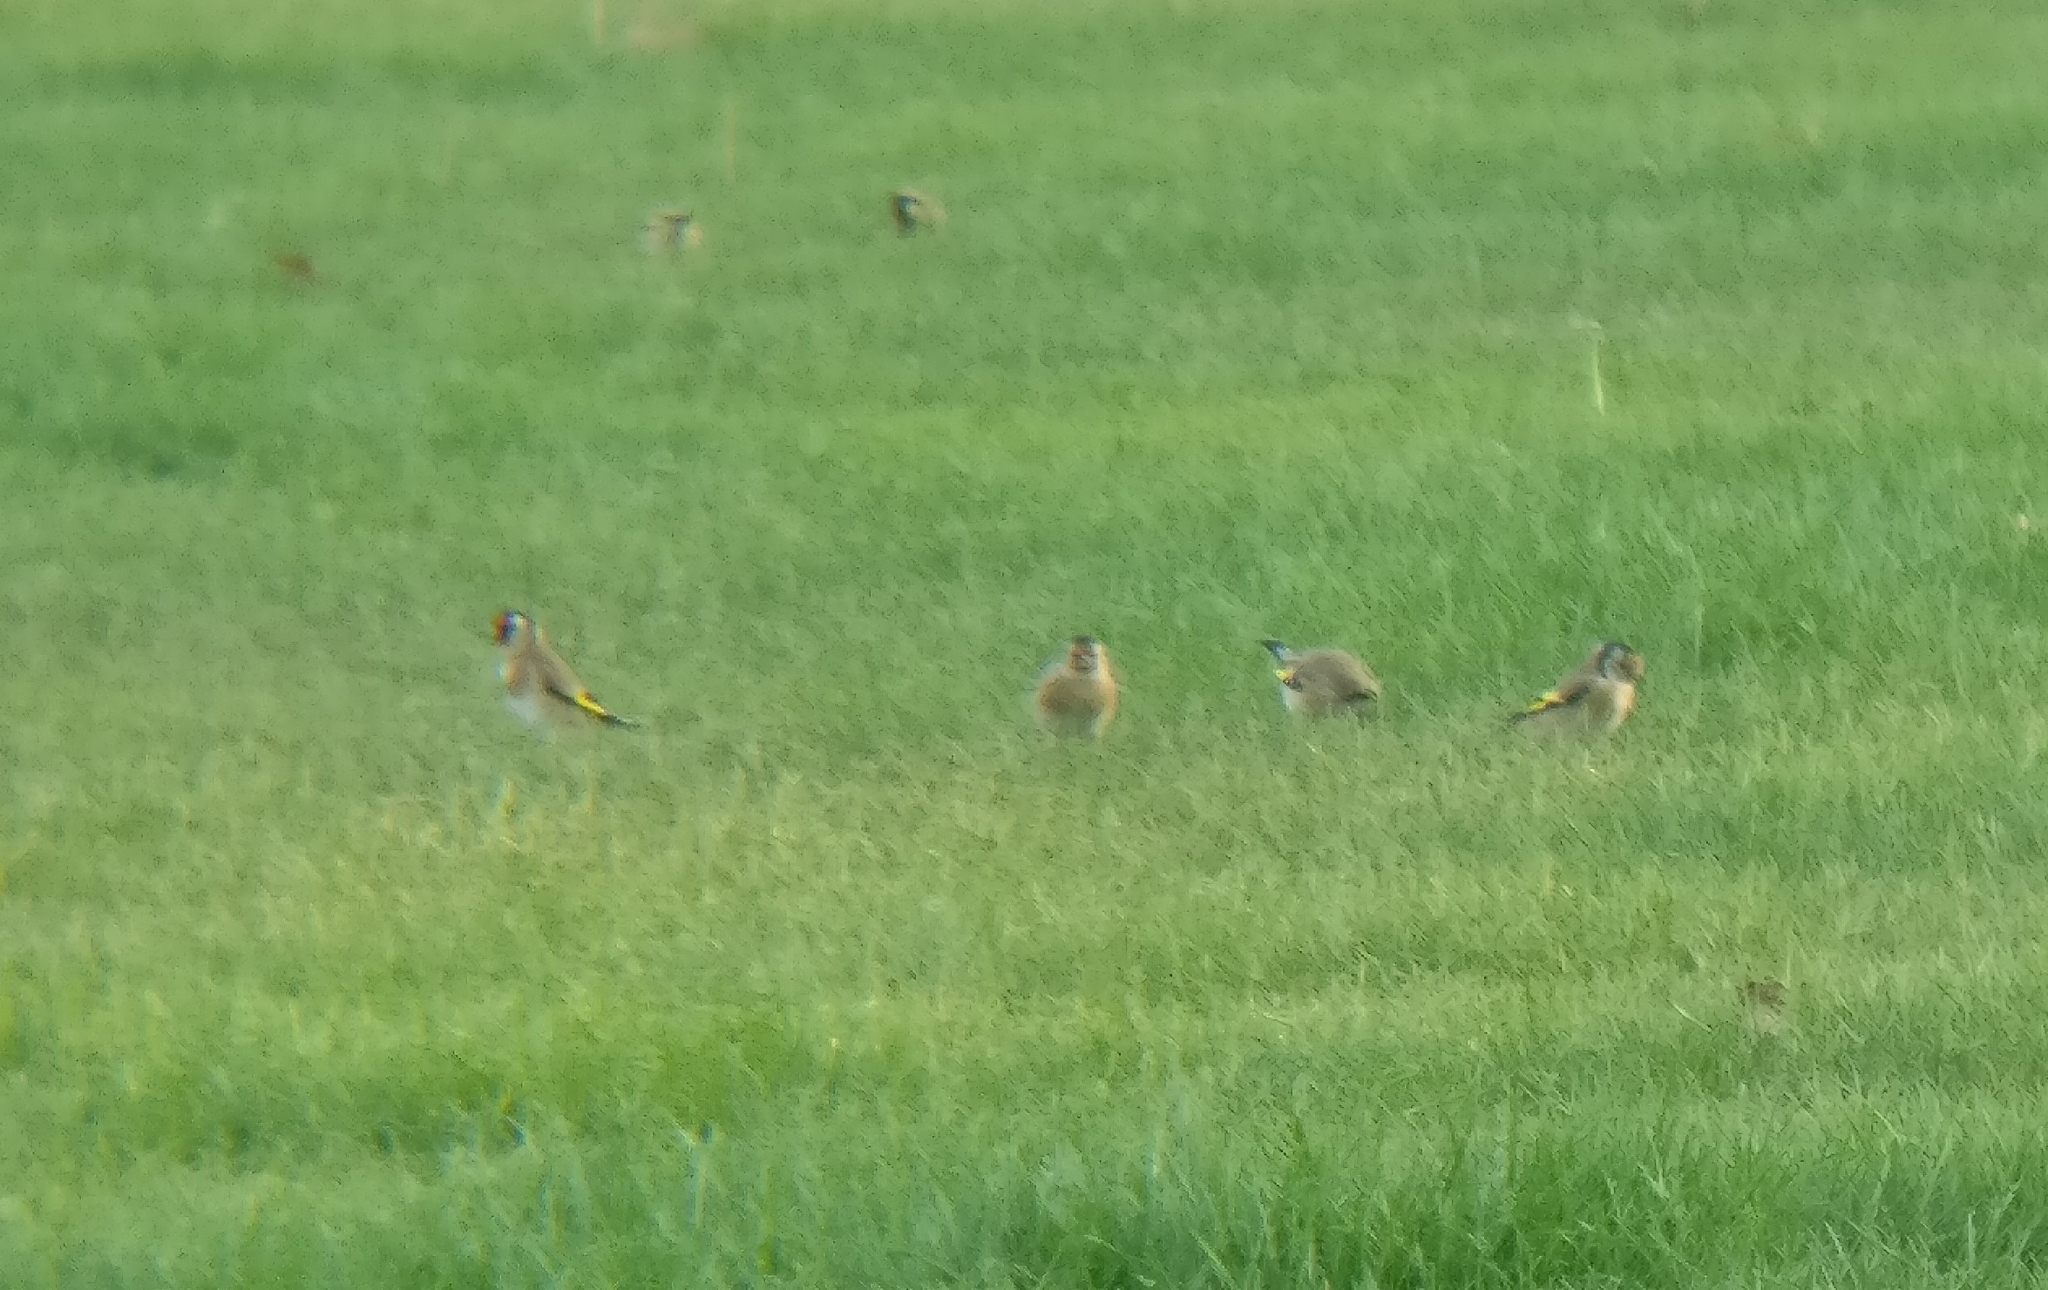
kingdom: Animalia
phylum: Chordata
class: Aves
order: Passeriformes
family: Fringillidae
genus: Carduelis
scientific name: Carduelis carduelis
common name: European goldfinch
